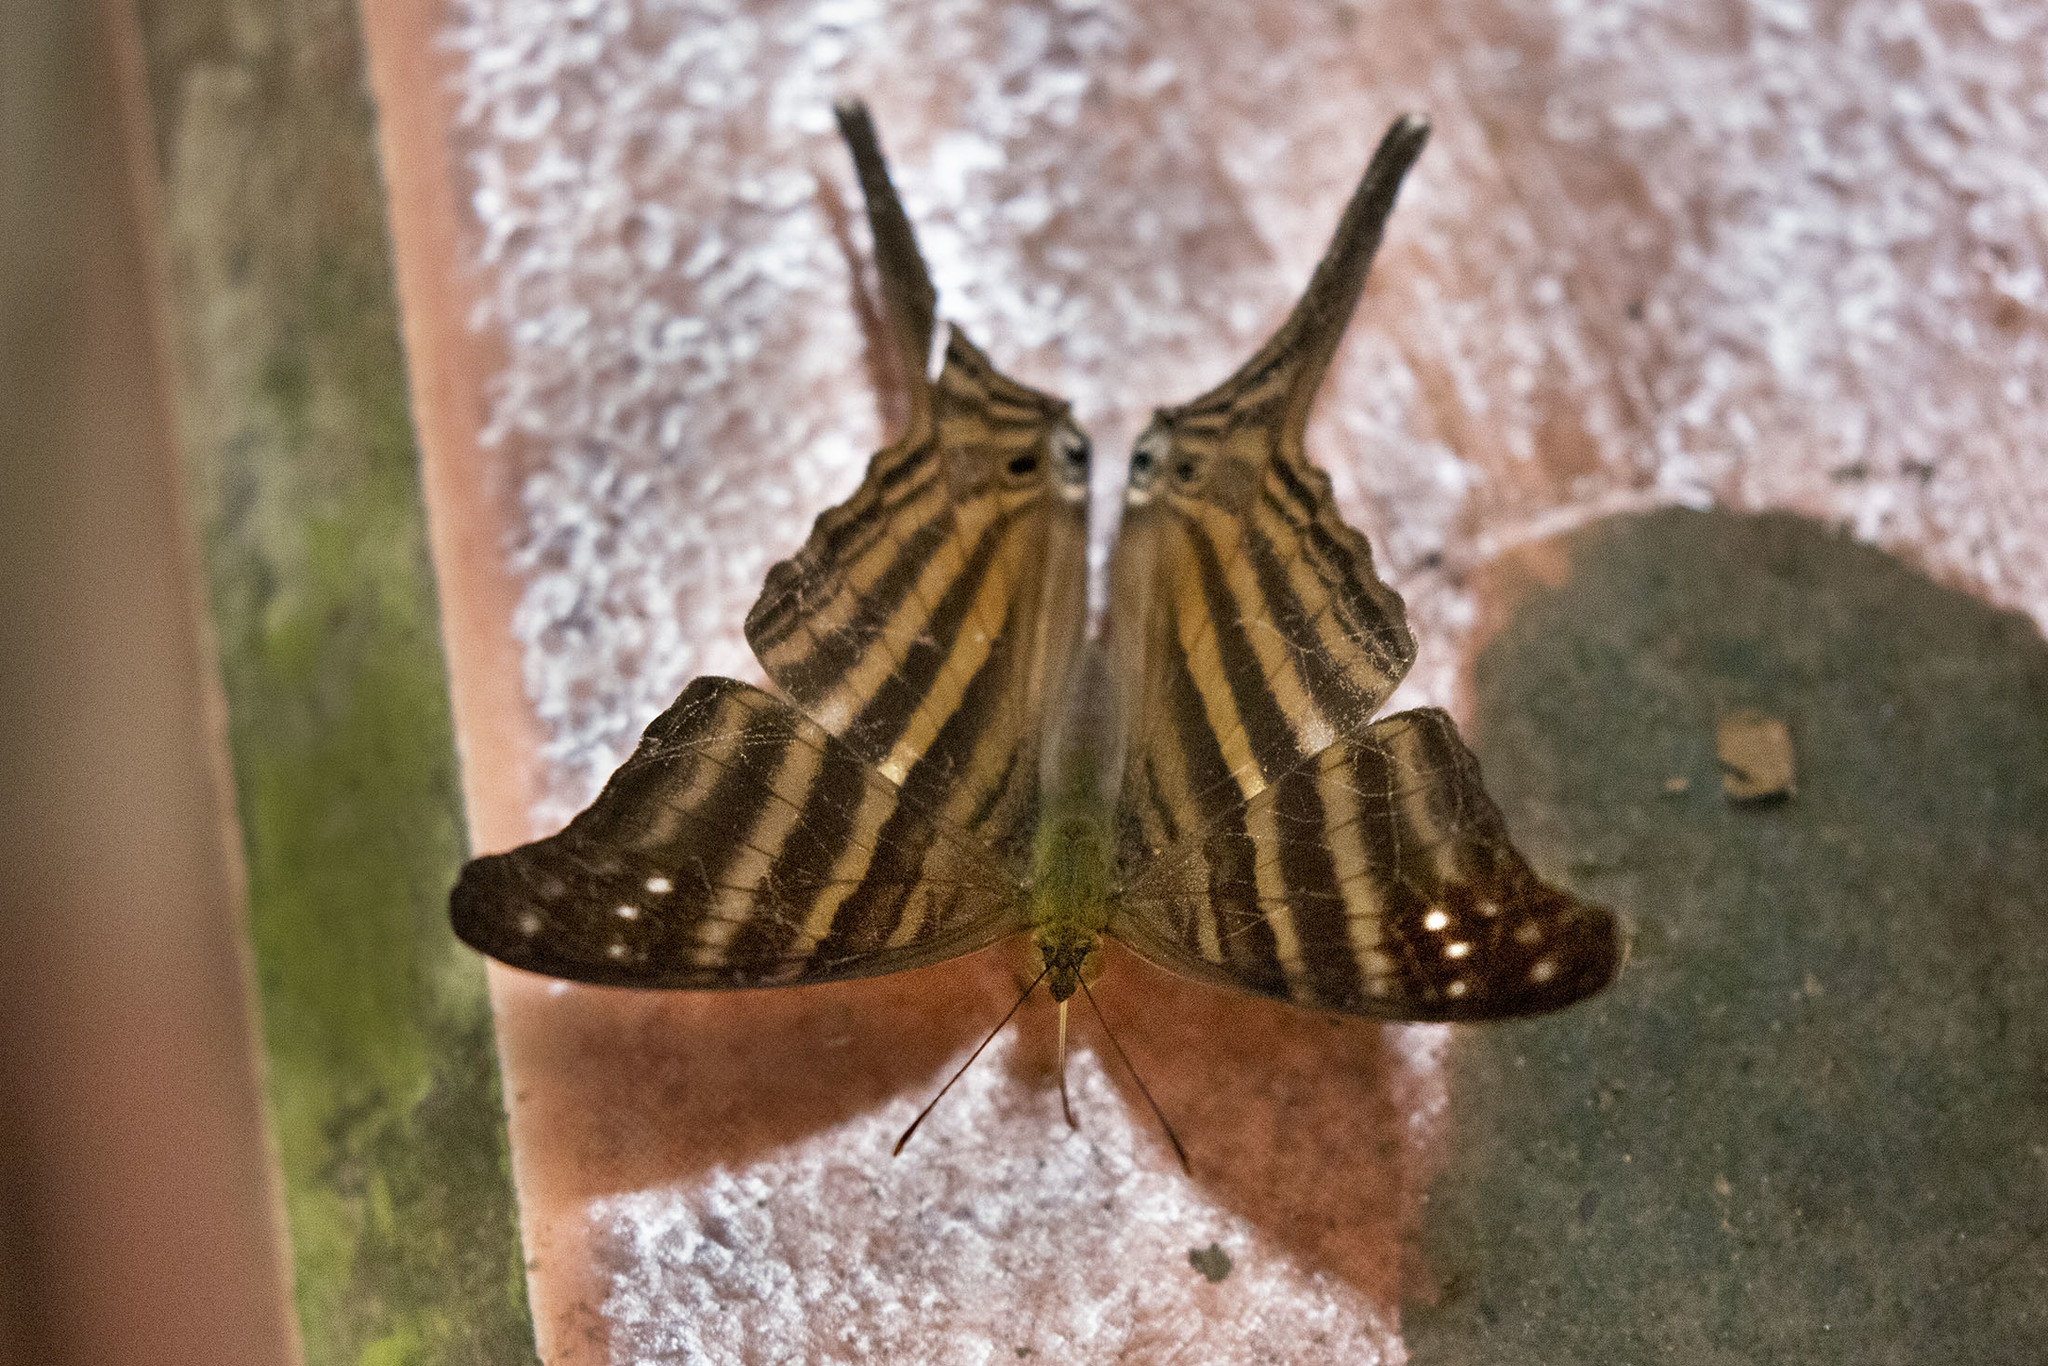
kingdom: Animalia
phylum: Arthropoda
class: Insecta
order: Lepidoptera
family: Nymphalidae
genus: Marpesia
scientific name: Marpesia chiron
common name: Many-banded daggerwing
